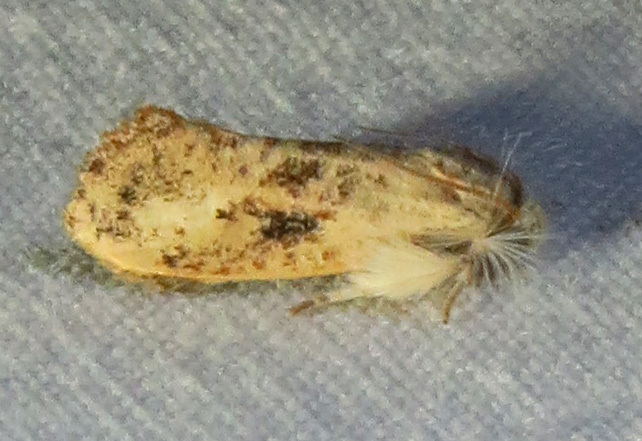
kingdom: Animalia
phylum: Arthropoda
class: Insecta
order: Lepidoptera
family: Tineidae
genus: Acrolophus
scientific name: Acrolophus mycetophagus
